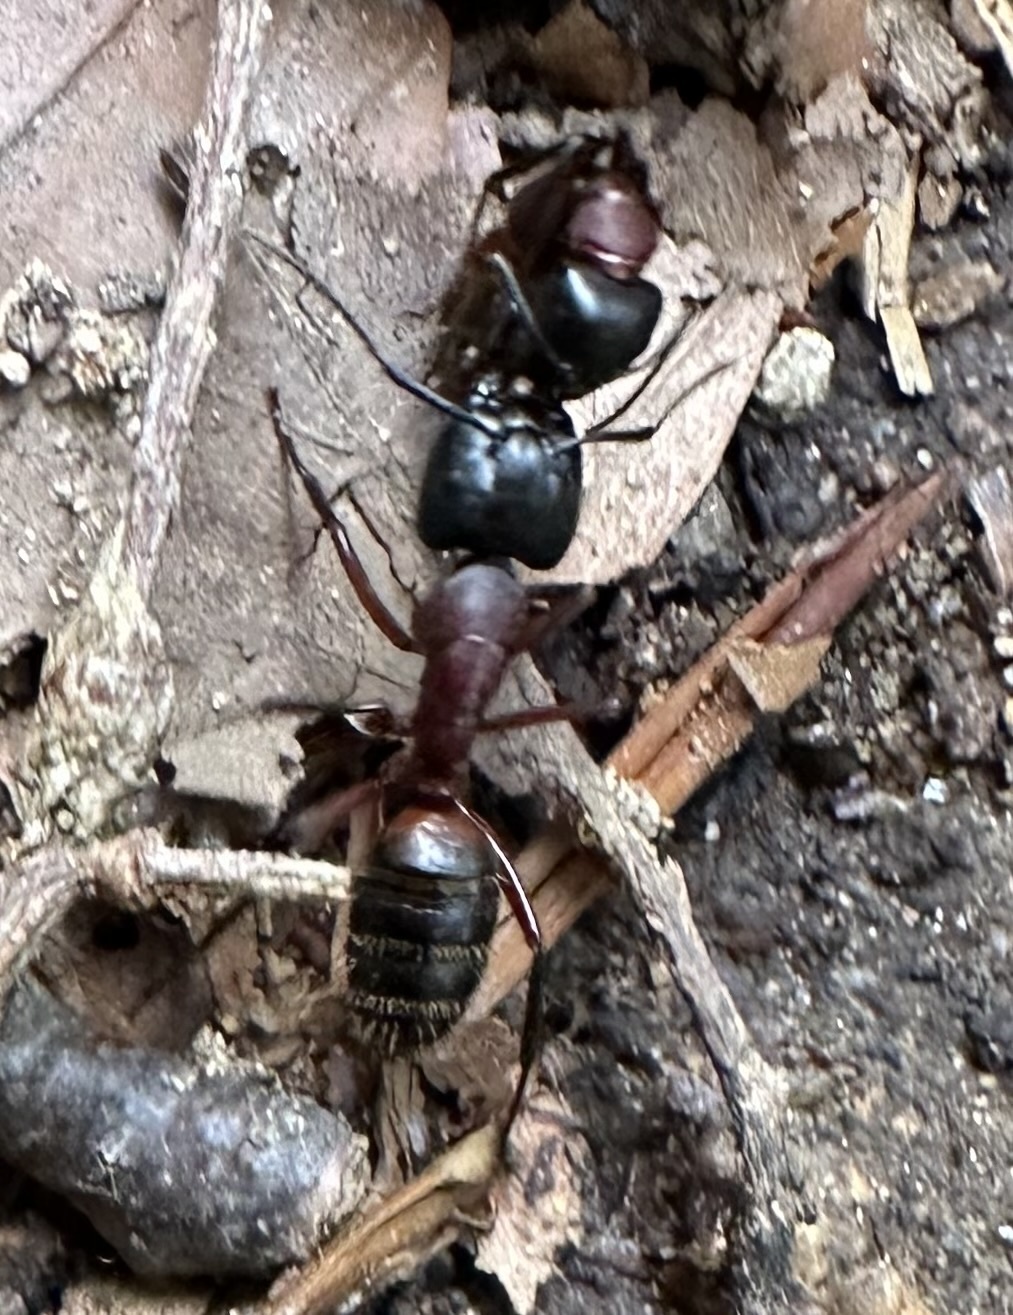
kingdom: Animalia
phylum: Arthropoda
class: Insecta
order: Hymenoptera
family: Formicidae
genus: Camponotus
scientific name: Camponotus ligniperdus
